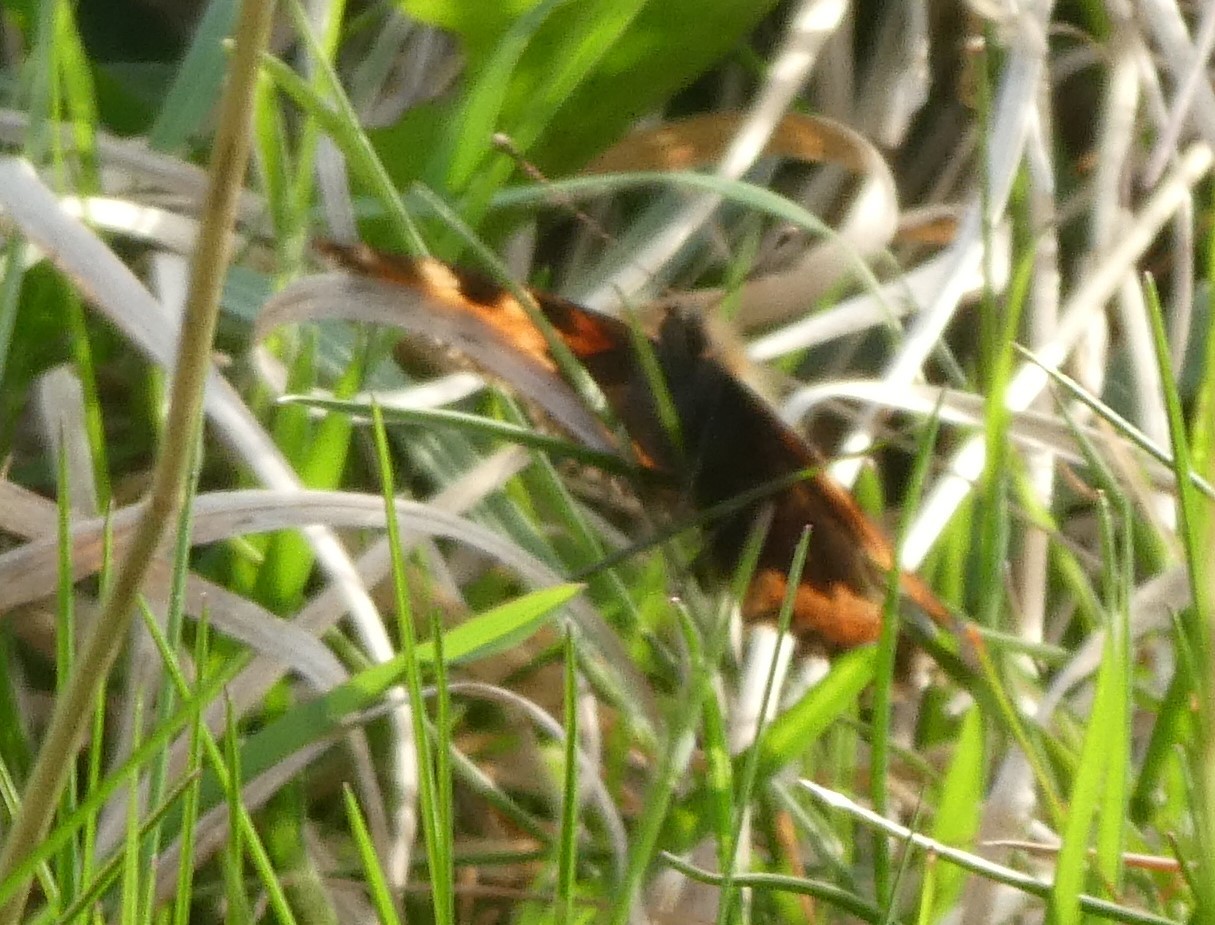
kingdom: Animalia
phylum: Arthropoda
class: Insecta
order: Lepidoptera
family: Nymphalidae
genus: Aglais
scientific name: Aglais urticae
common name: Small tortoiseshell
